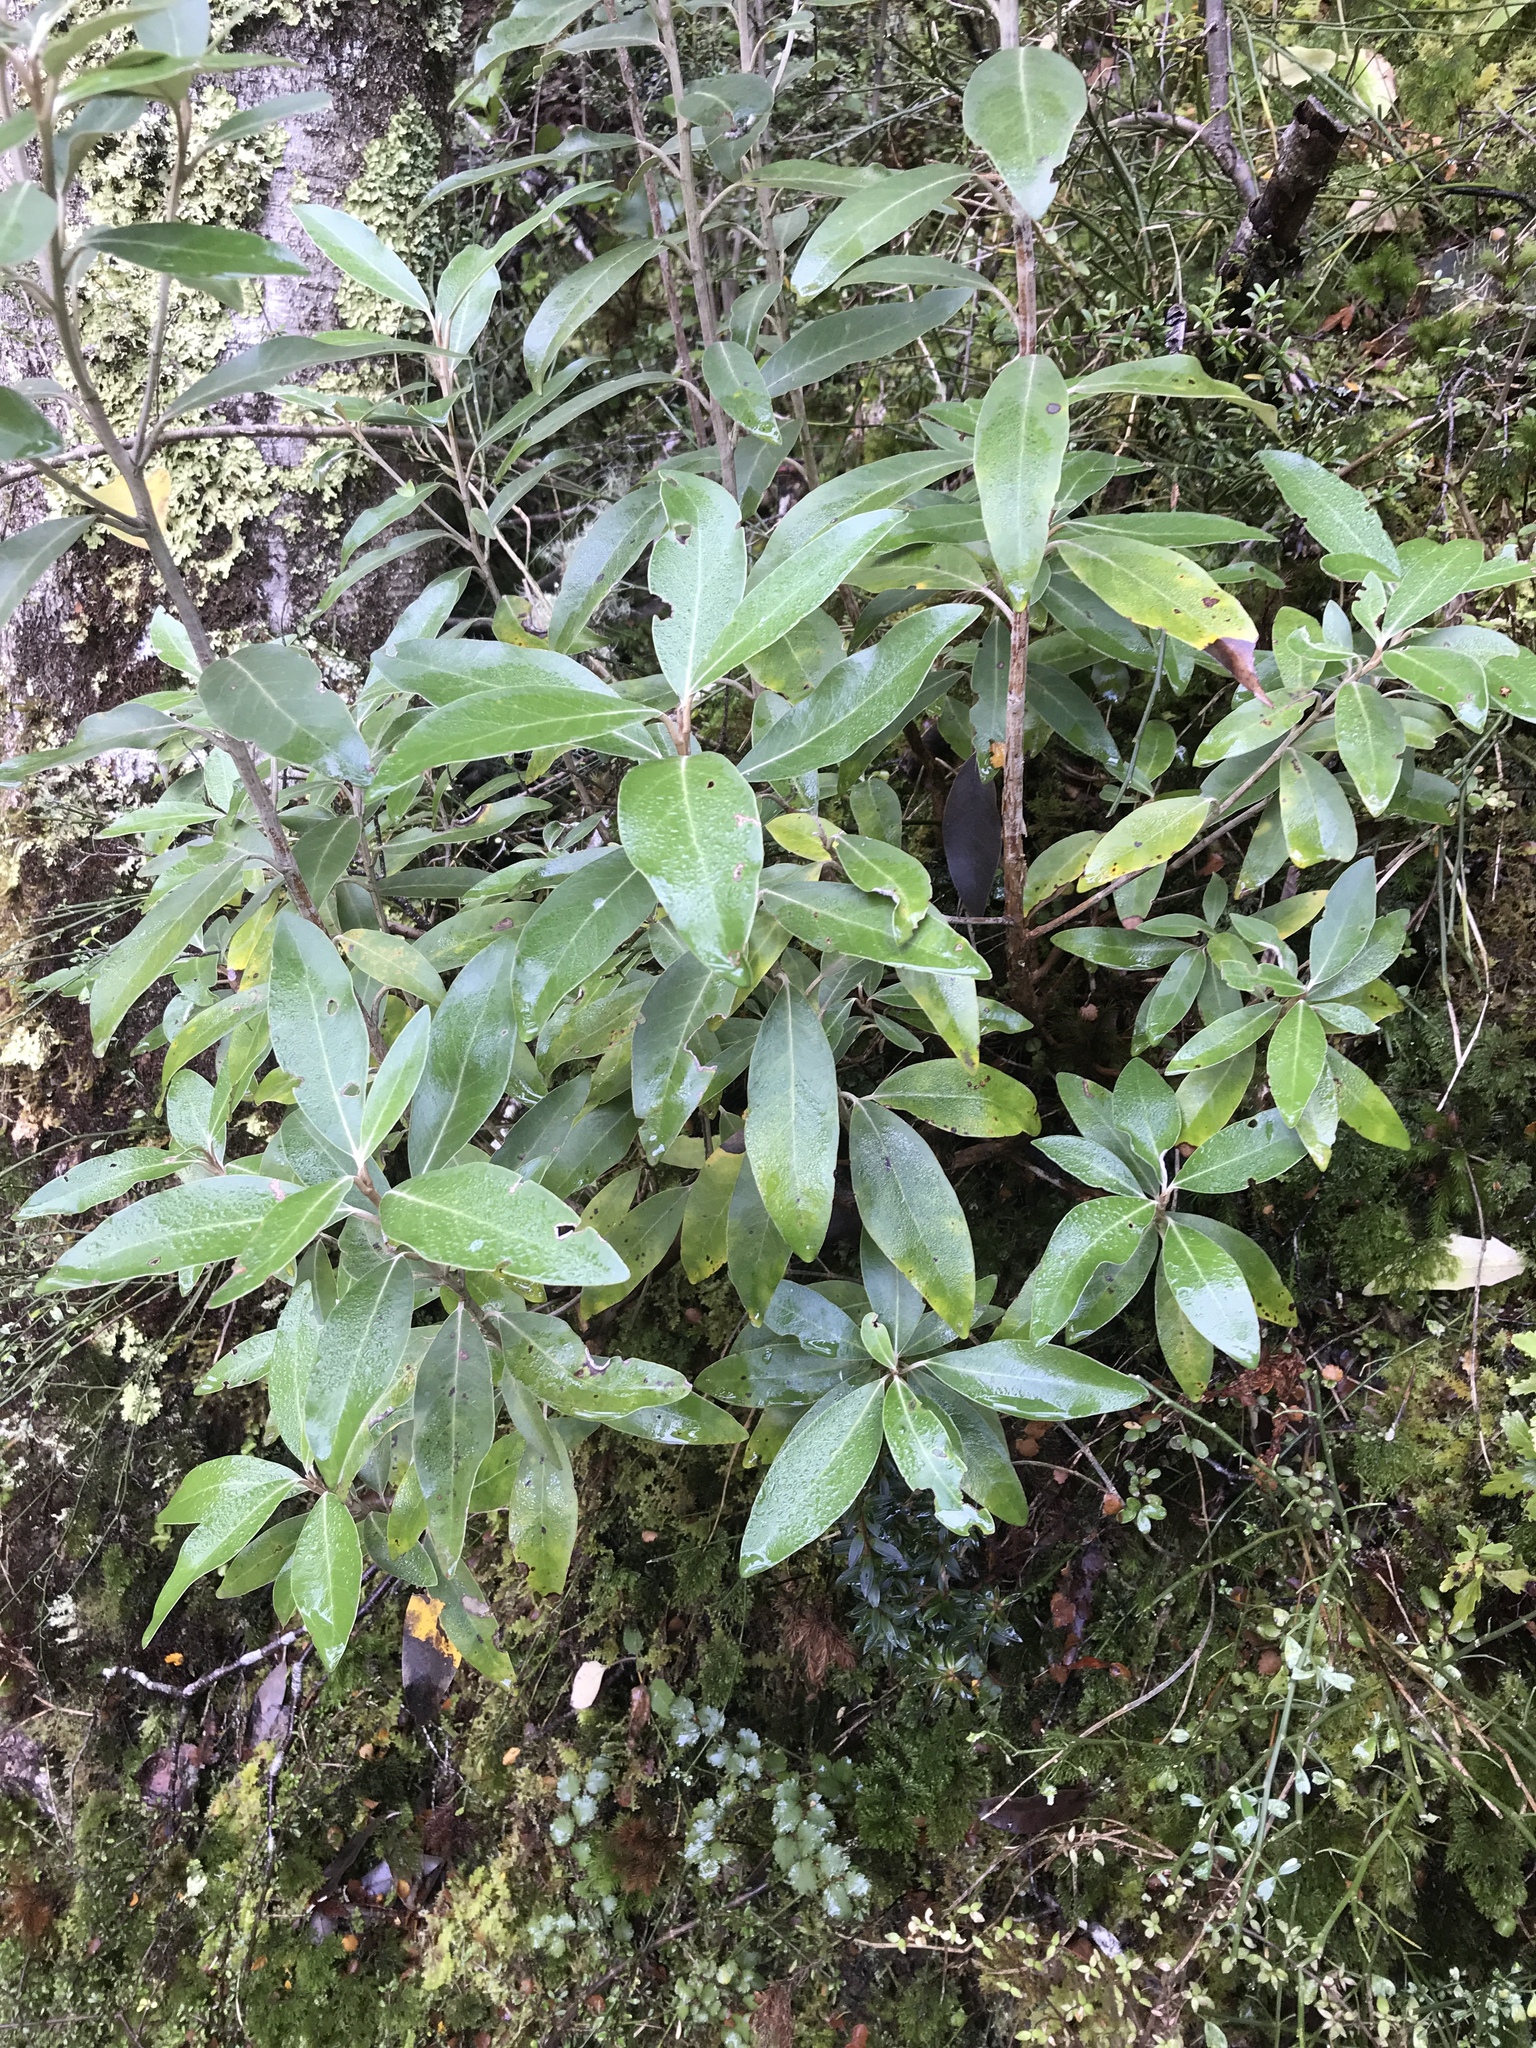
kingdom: Plantae
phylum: Tracheophyta
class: Magnoliopsida
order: Asterales
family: Asteraceae
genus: Olearia
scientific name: Olearia avicenniifolia
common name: Mangrove-leaf daisybush
